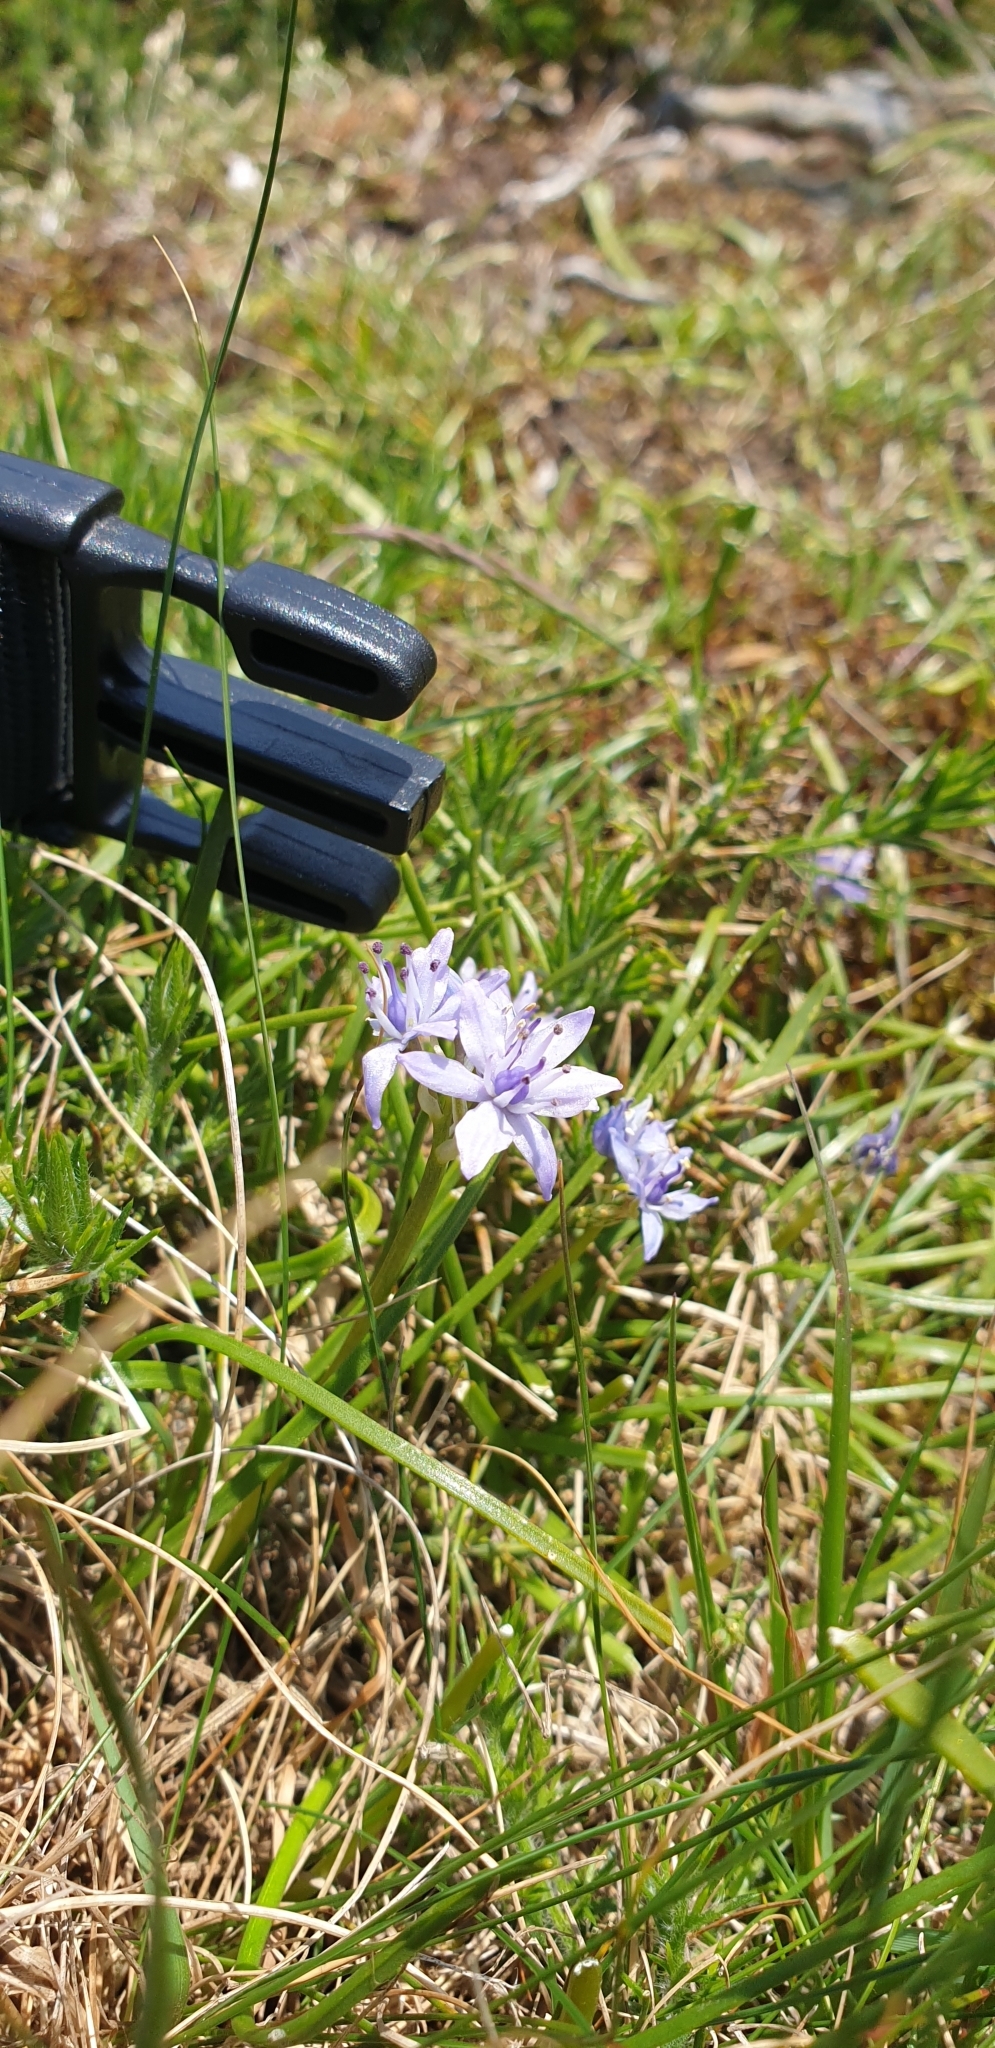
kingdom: Plantae
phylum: Tracheophyta
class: Liliopsida
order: Asparagales
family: Asparagaceae
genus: Scilla
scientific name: Scilla verna
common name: Spring squill
